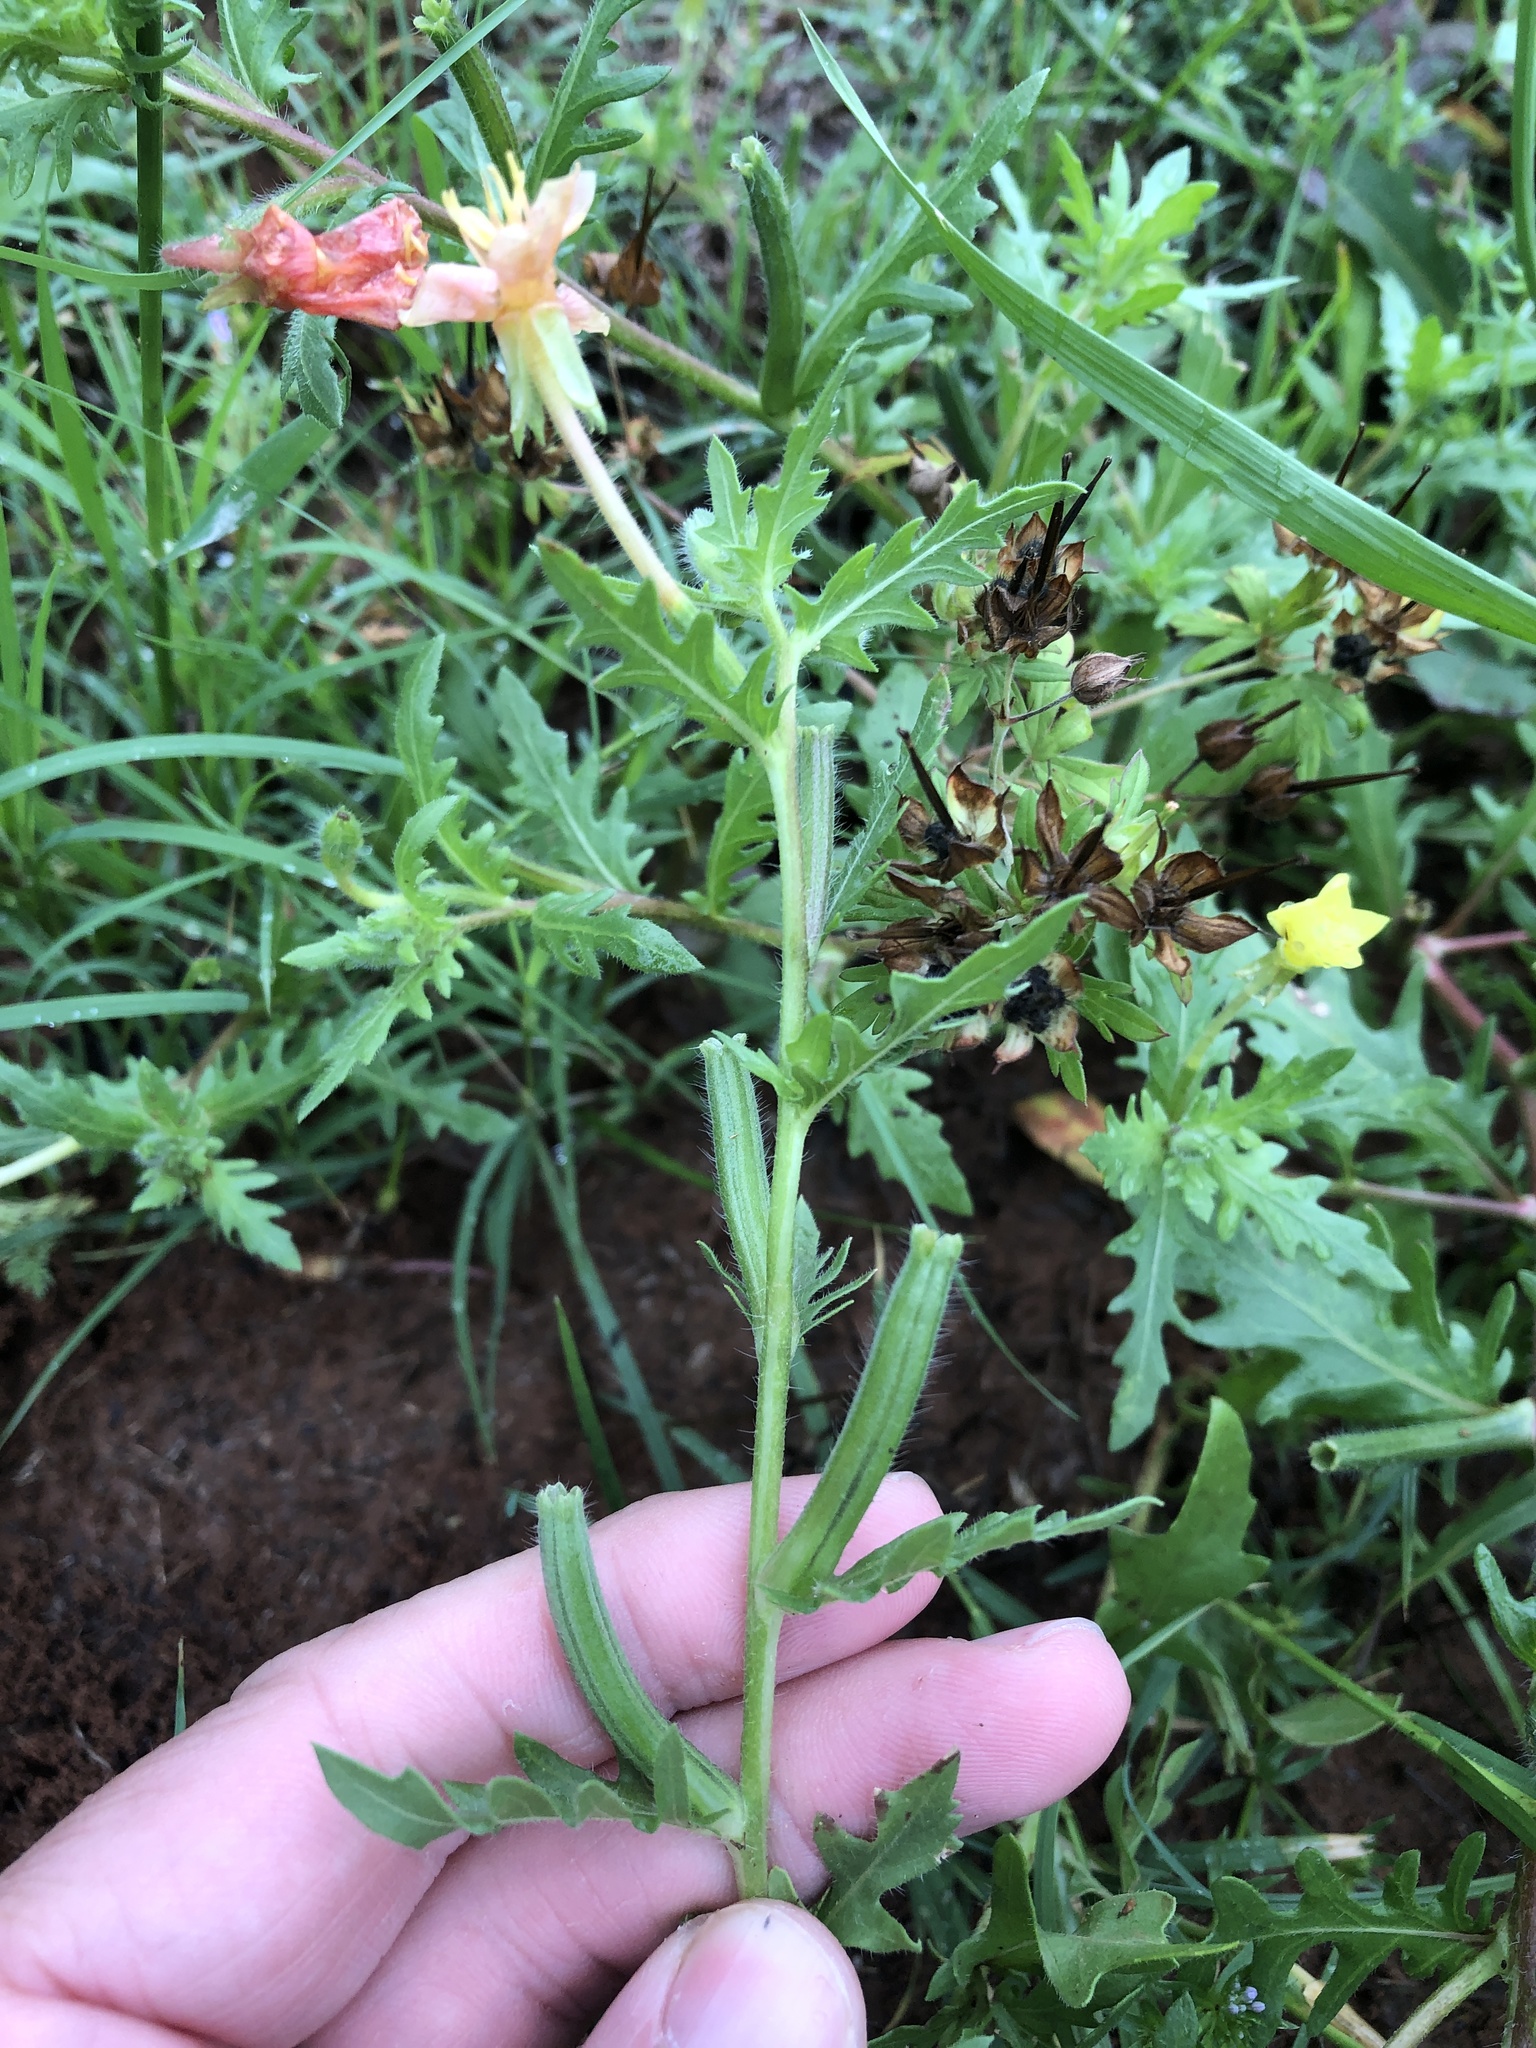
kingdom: Plantae
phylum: Tracheophyta
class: Magnoliopsida
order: Myrtales
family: Onagraceae
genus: Oenothera
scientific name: Oenothera laciniata
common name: Cut-leaved evening-primrose
